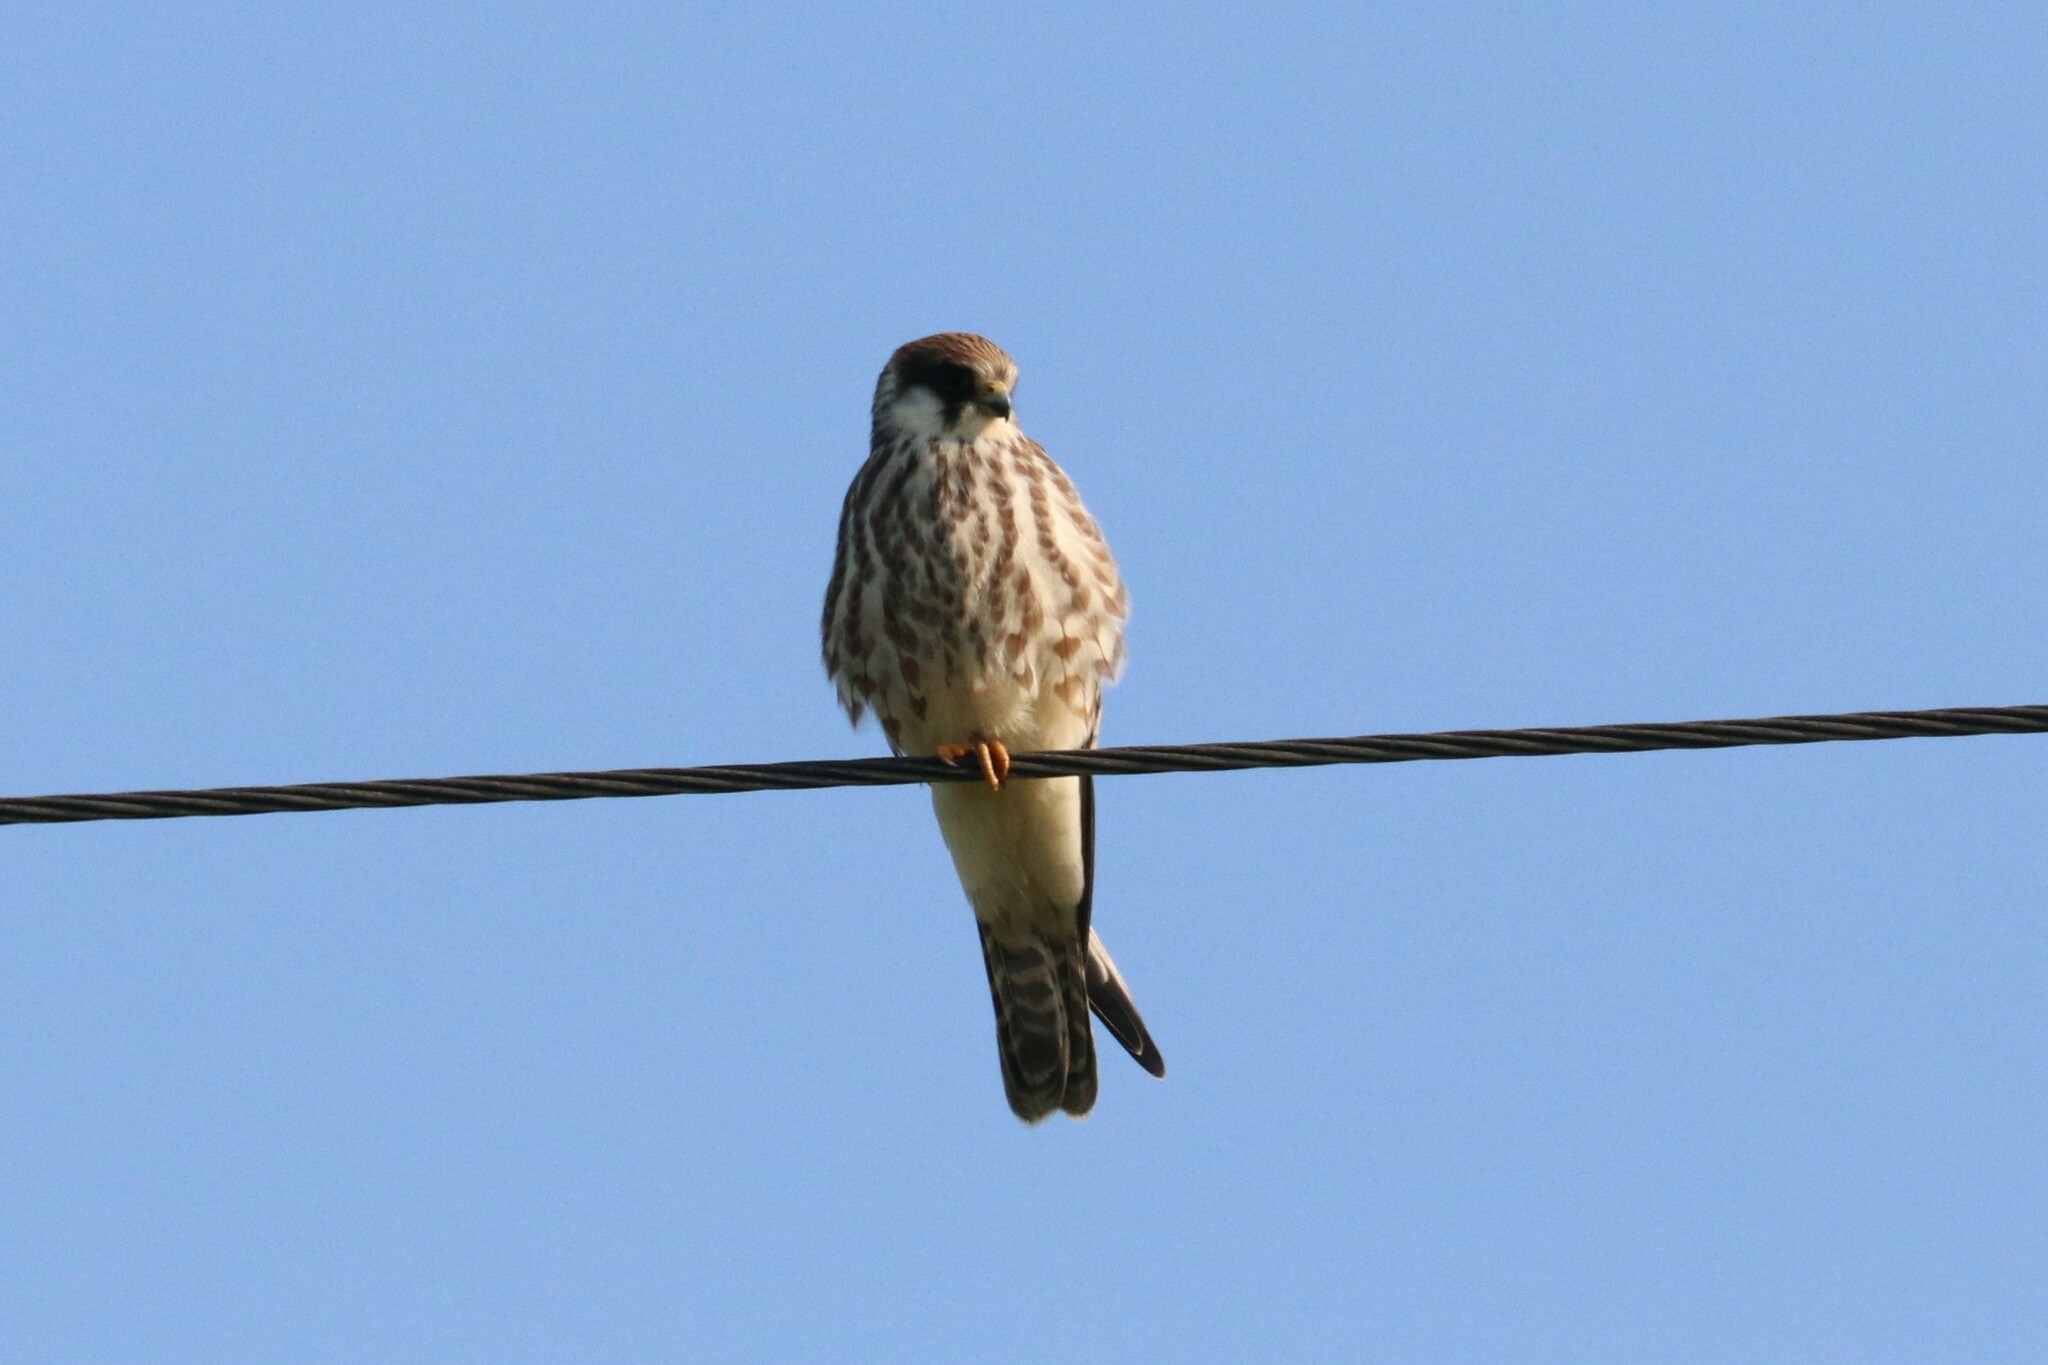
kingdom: Animalia
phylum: Chordata
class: Aves
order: Falconiformes
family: Falconidae
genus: Falco
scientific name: Falco vespertinus
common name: Red-footed falcon
